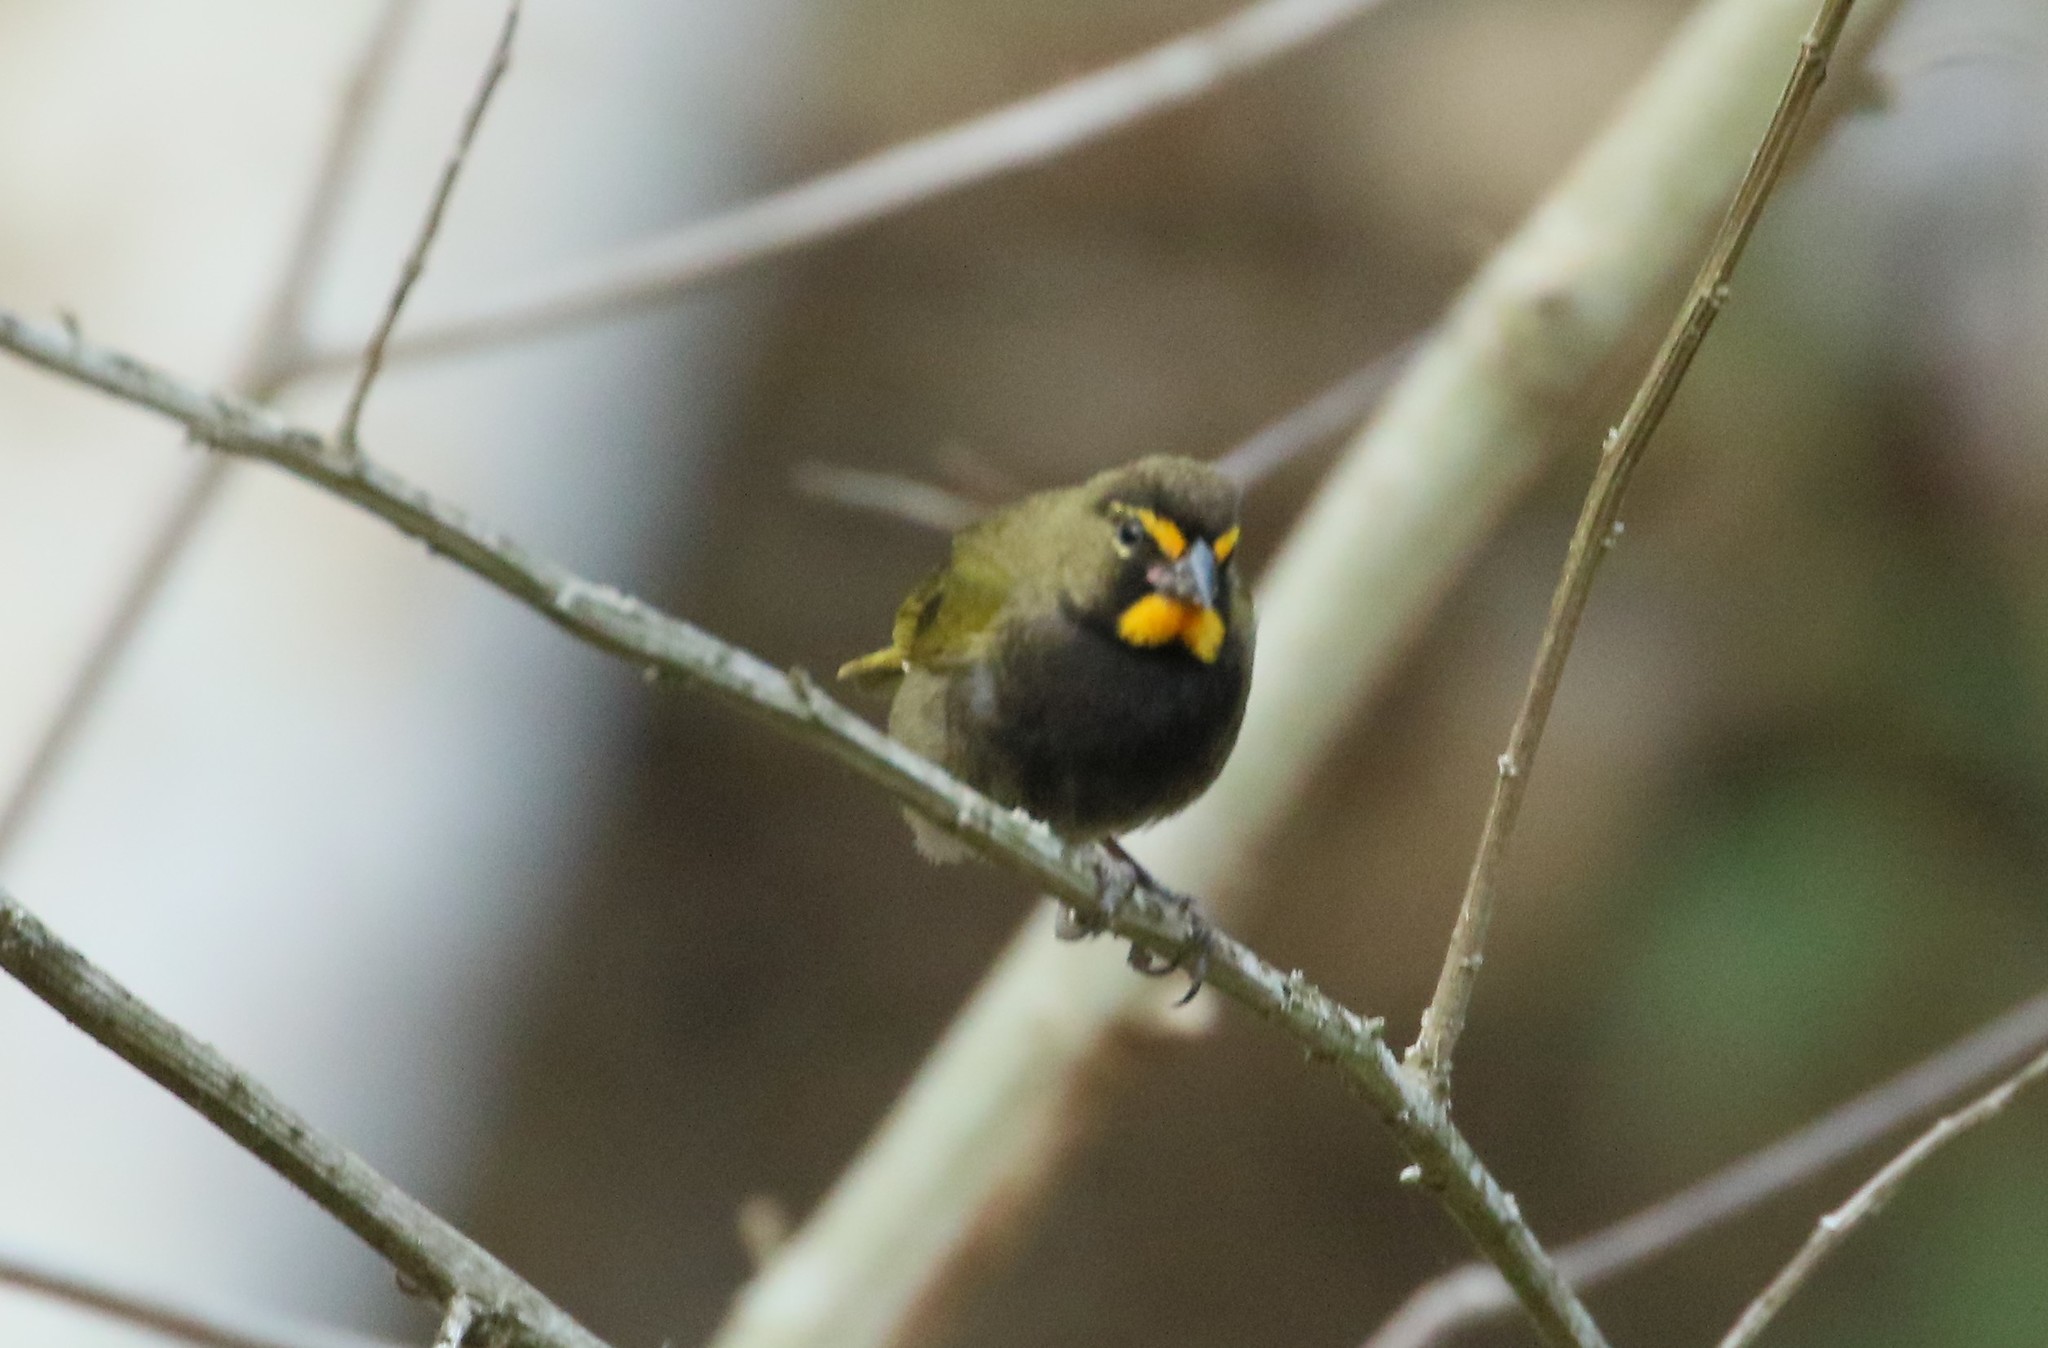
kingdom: Animalia
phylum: Chordata
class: Aves
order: Passeriformes
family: Thraupidae
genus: Tiaris
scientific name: Tiaris olivaceus
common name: Yellow-faced grassquit
